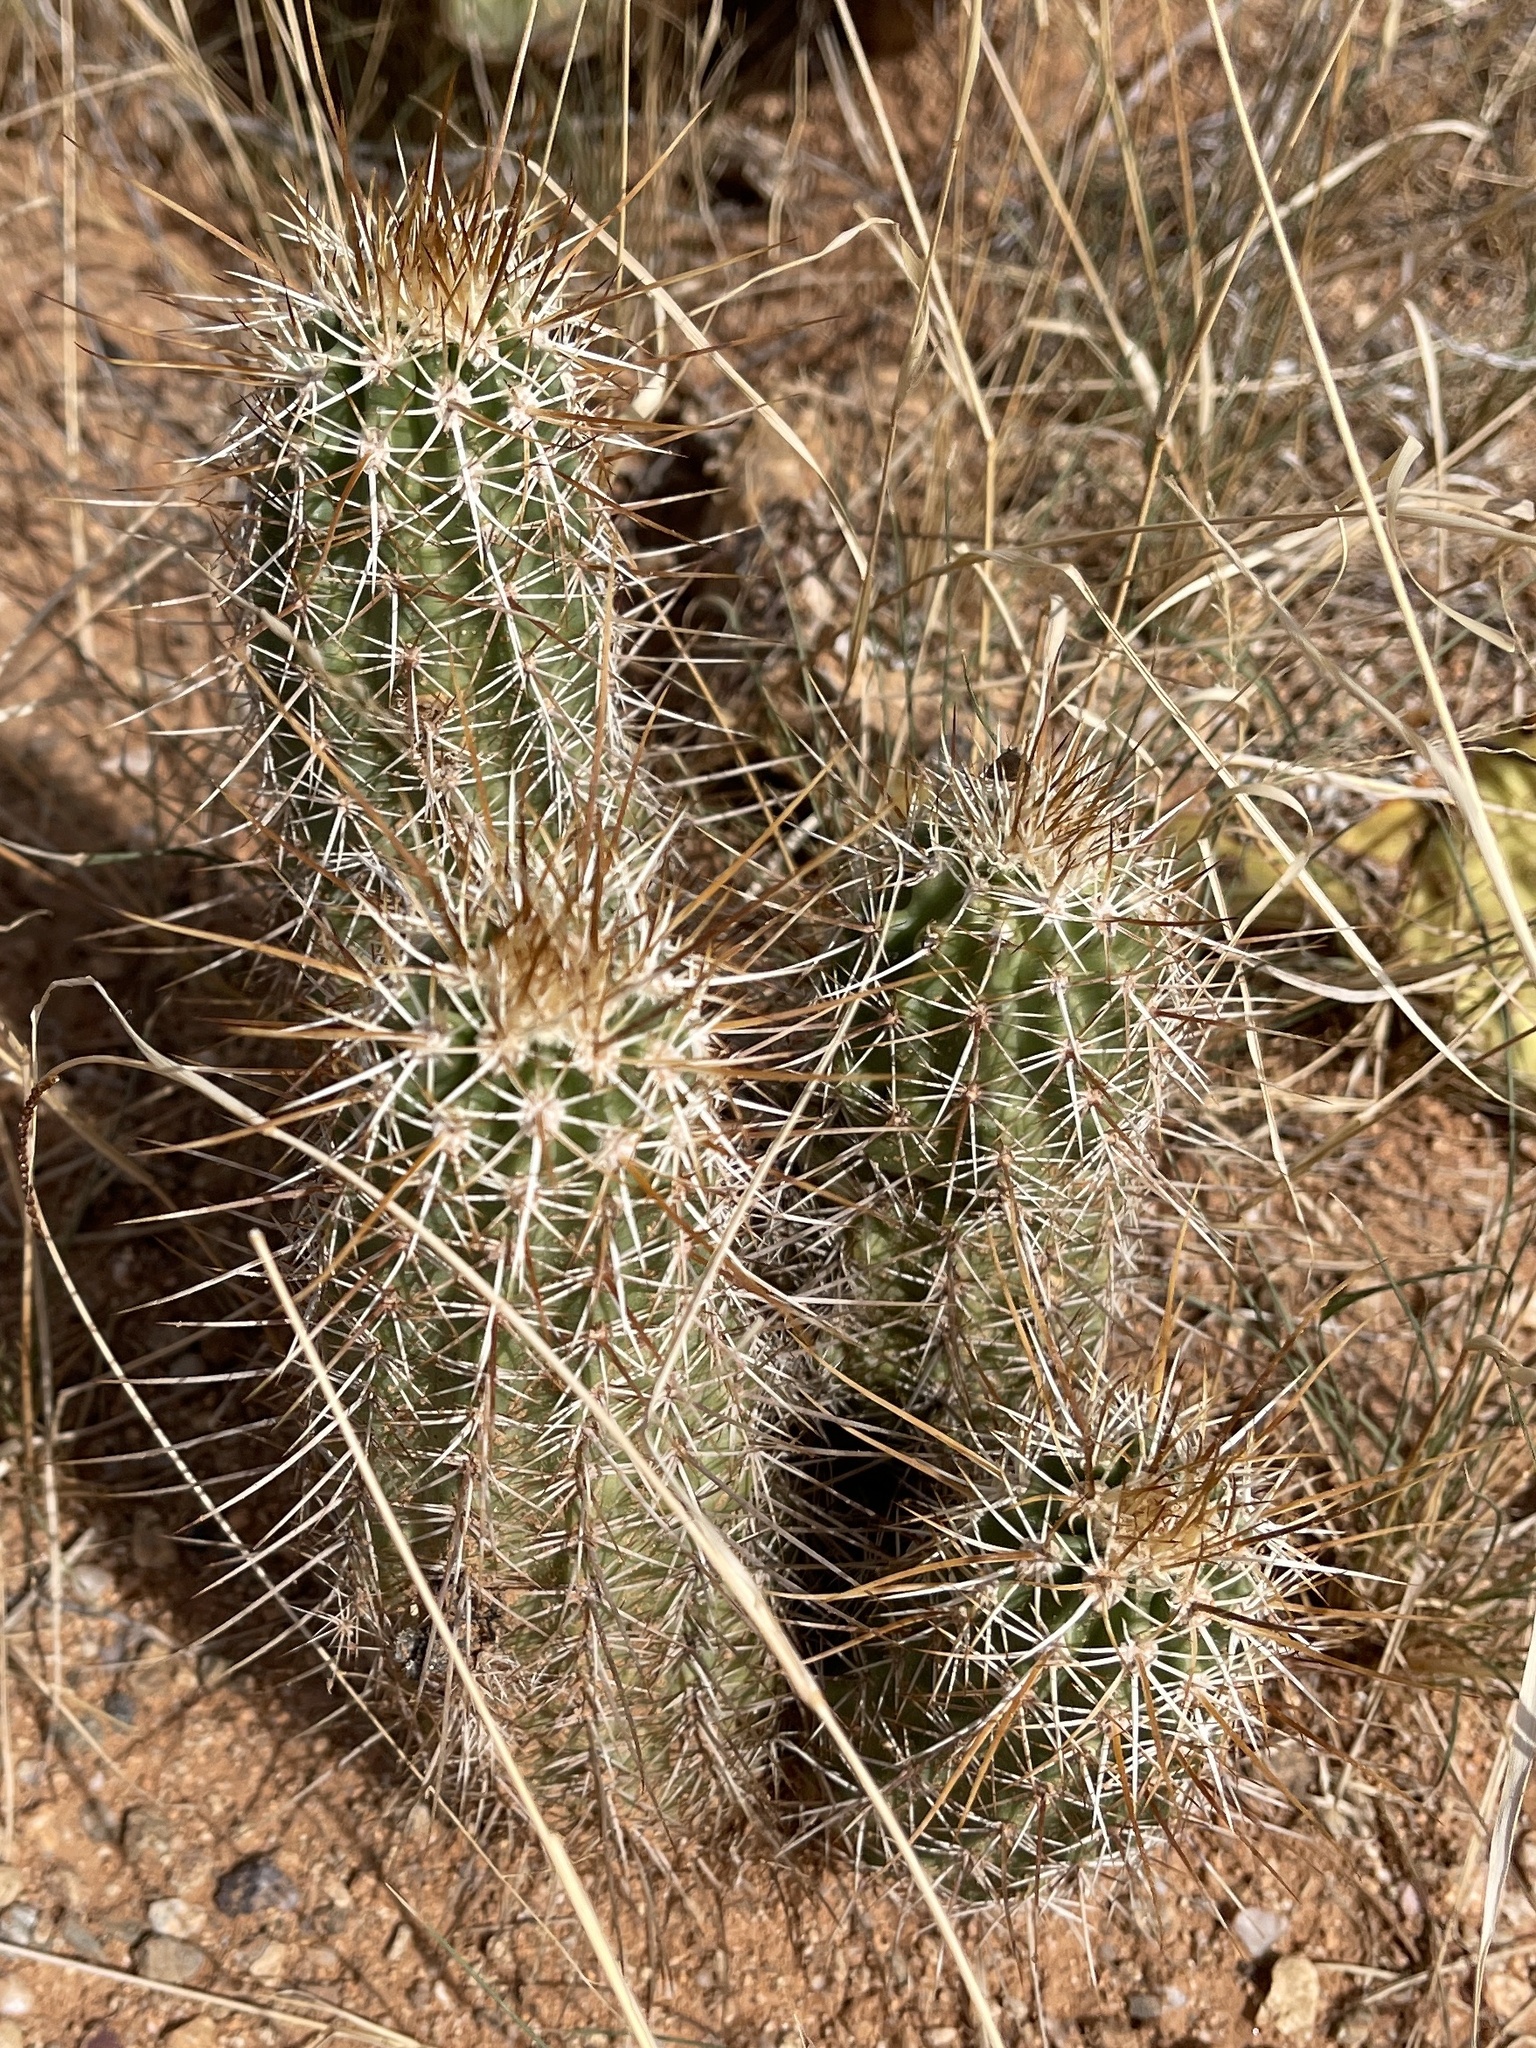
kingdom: Plantae
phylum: Tracheophyta
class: Magnoliopsida
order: Caryophyllales
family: Cactaceae
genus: Echinocereus
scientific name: Echinocereus fasciculatus
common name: Bundle hedgehog
